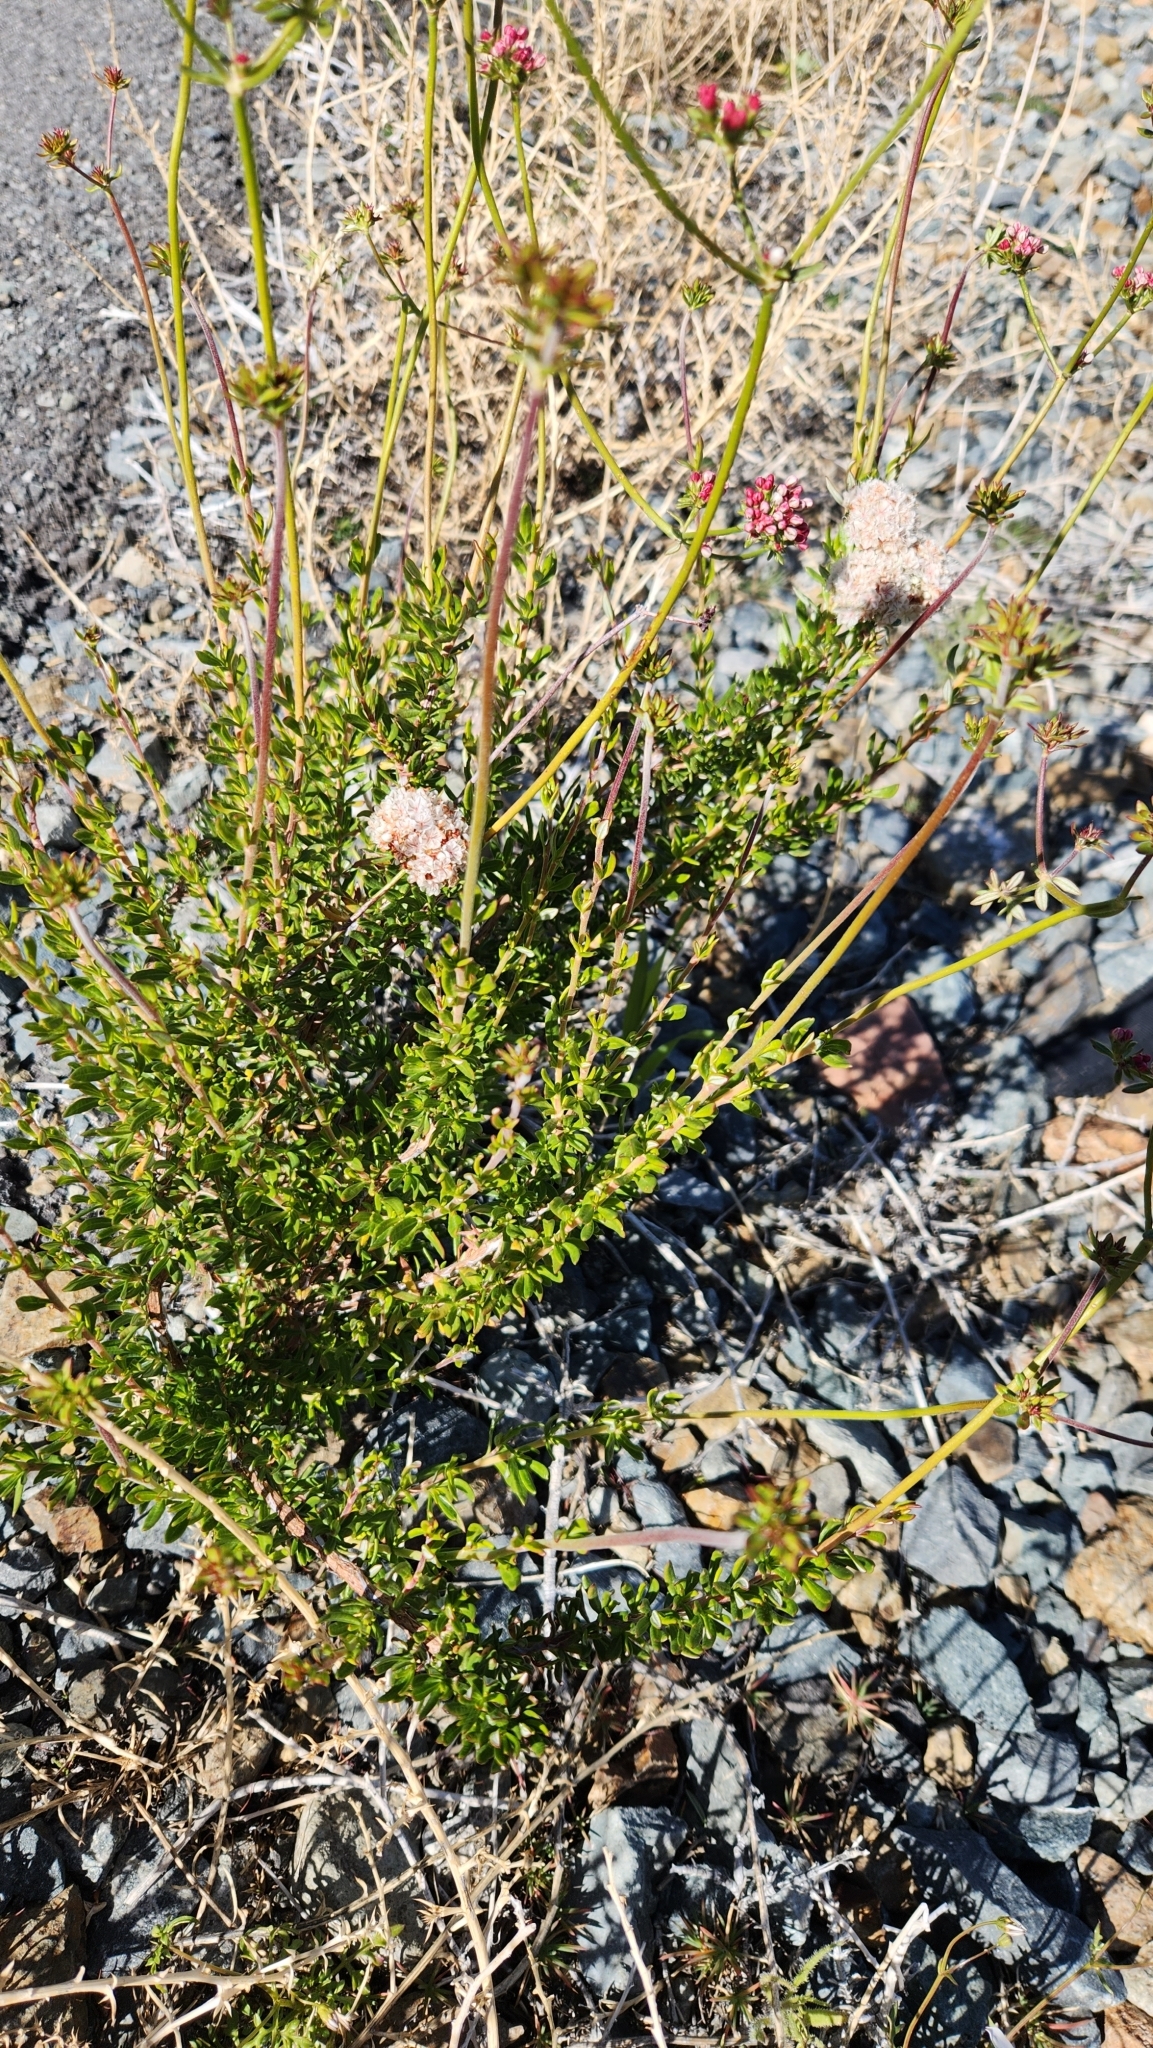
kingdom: Plantae
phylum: Tracheophyta
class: Magnoliopsida
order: Caryophyllales
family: Polygonaceae
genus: Eriogonum
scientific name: Eriogonum fasciculatum
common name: California wild buckwheat
